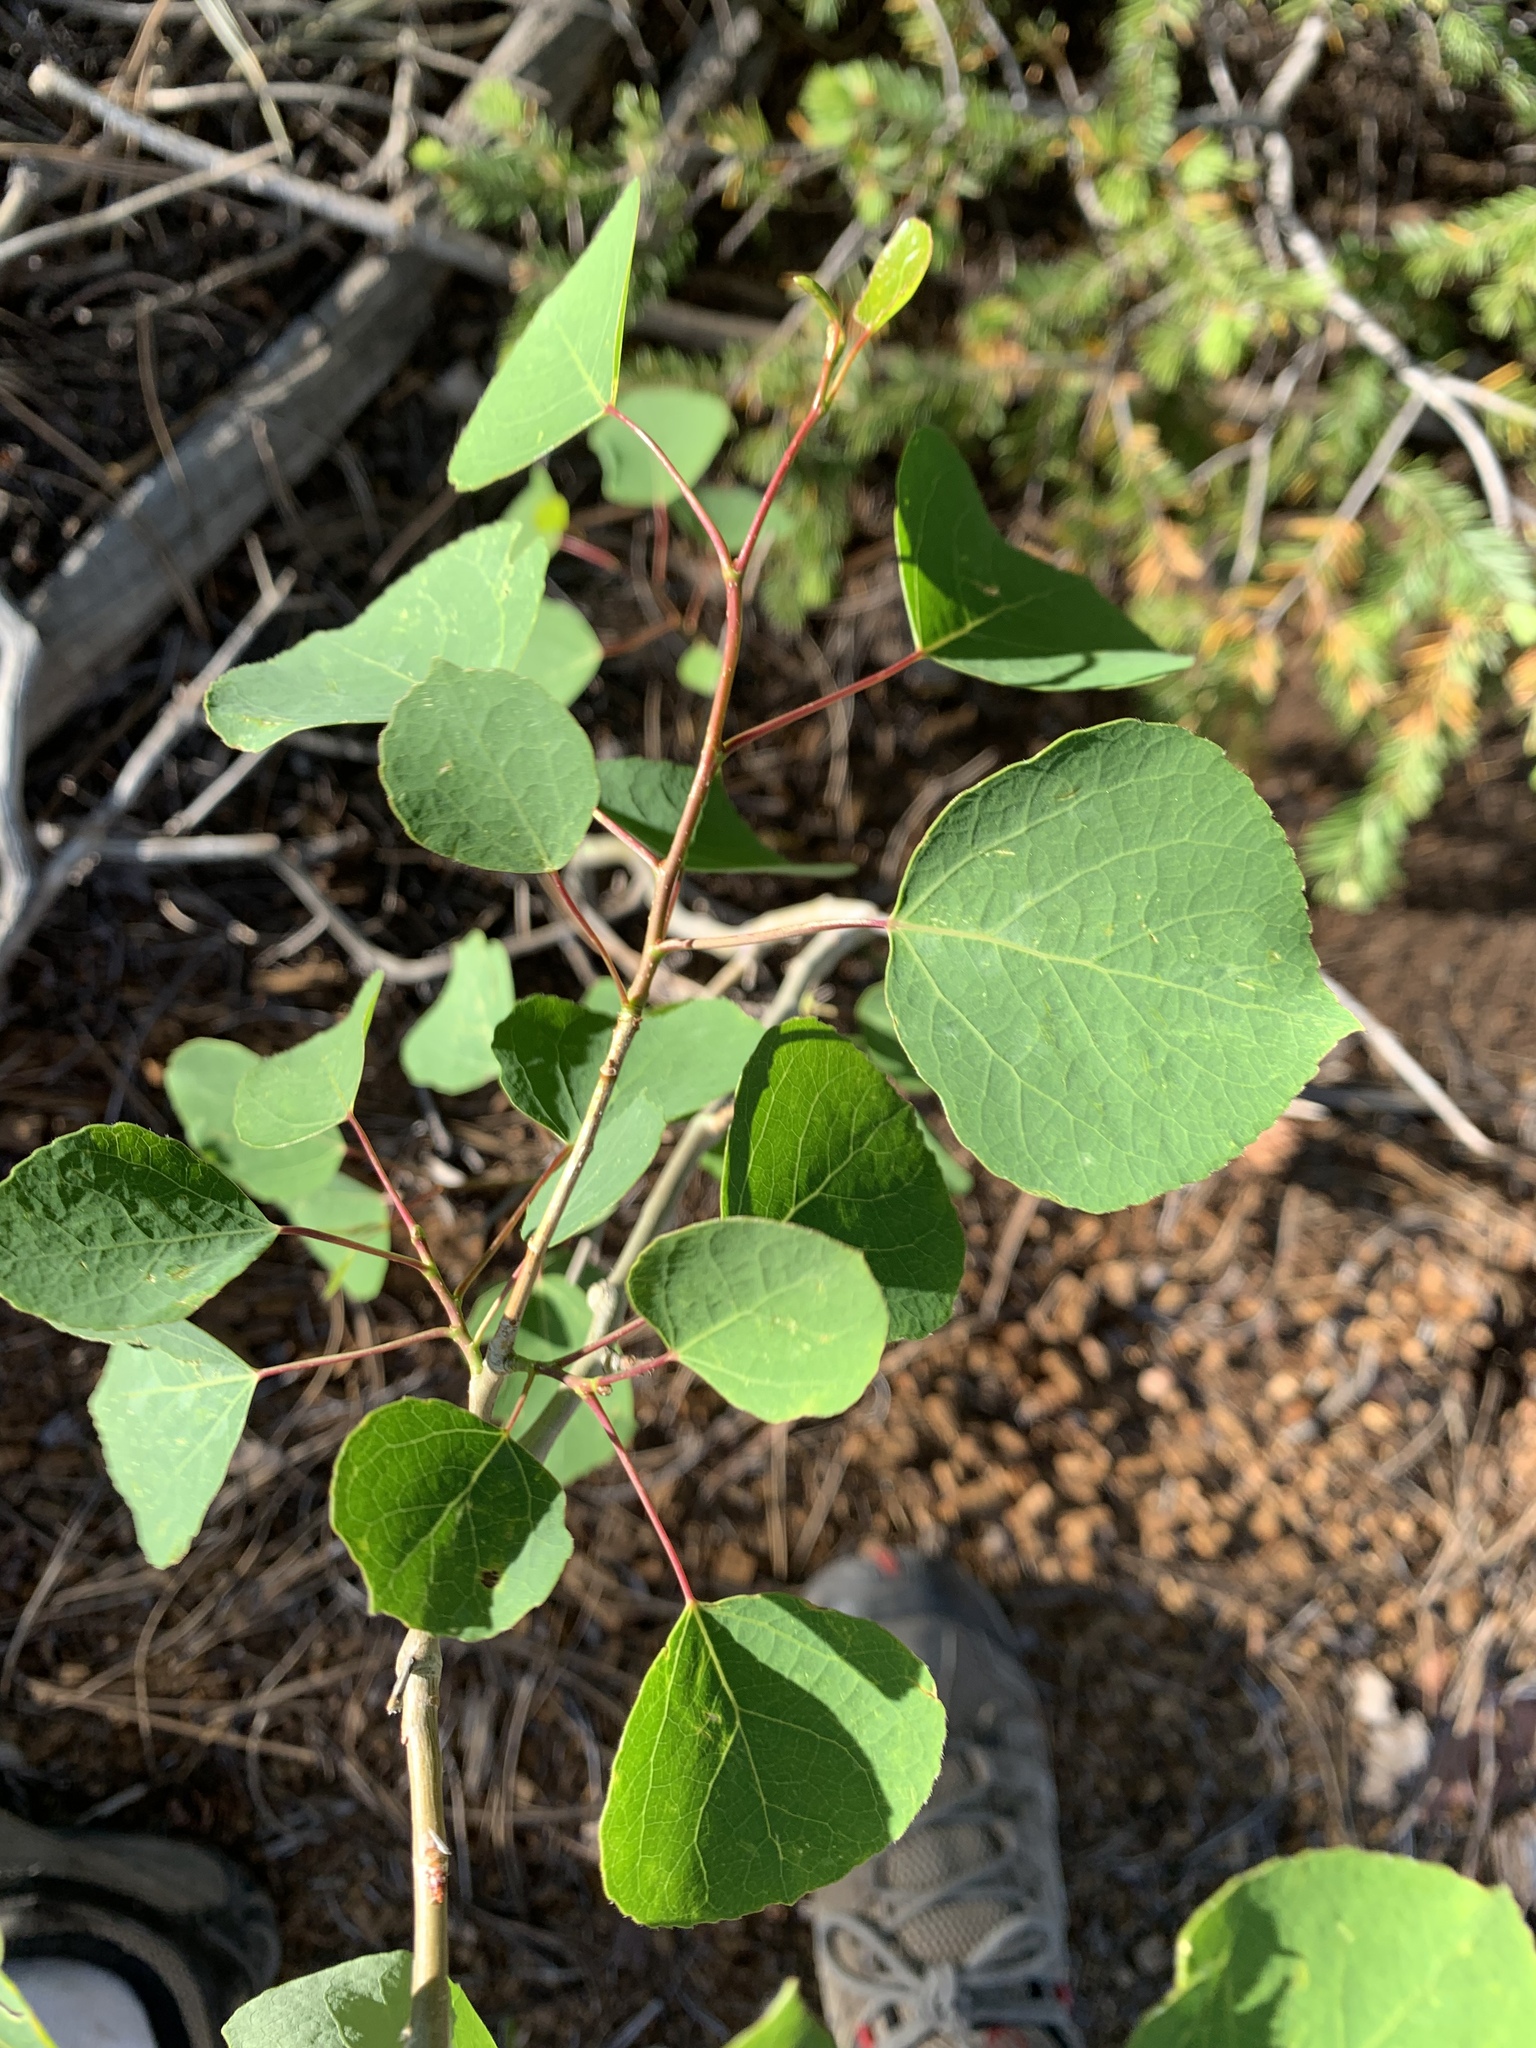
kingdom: Plantae
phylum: Tracheophyta
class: Magnoliopsida
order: Malpighiales
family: Salicaceae
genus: Populus
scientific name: Populus tremuloides
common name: Quaking aspen
